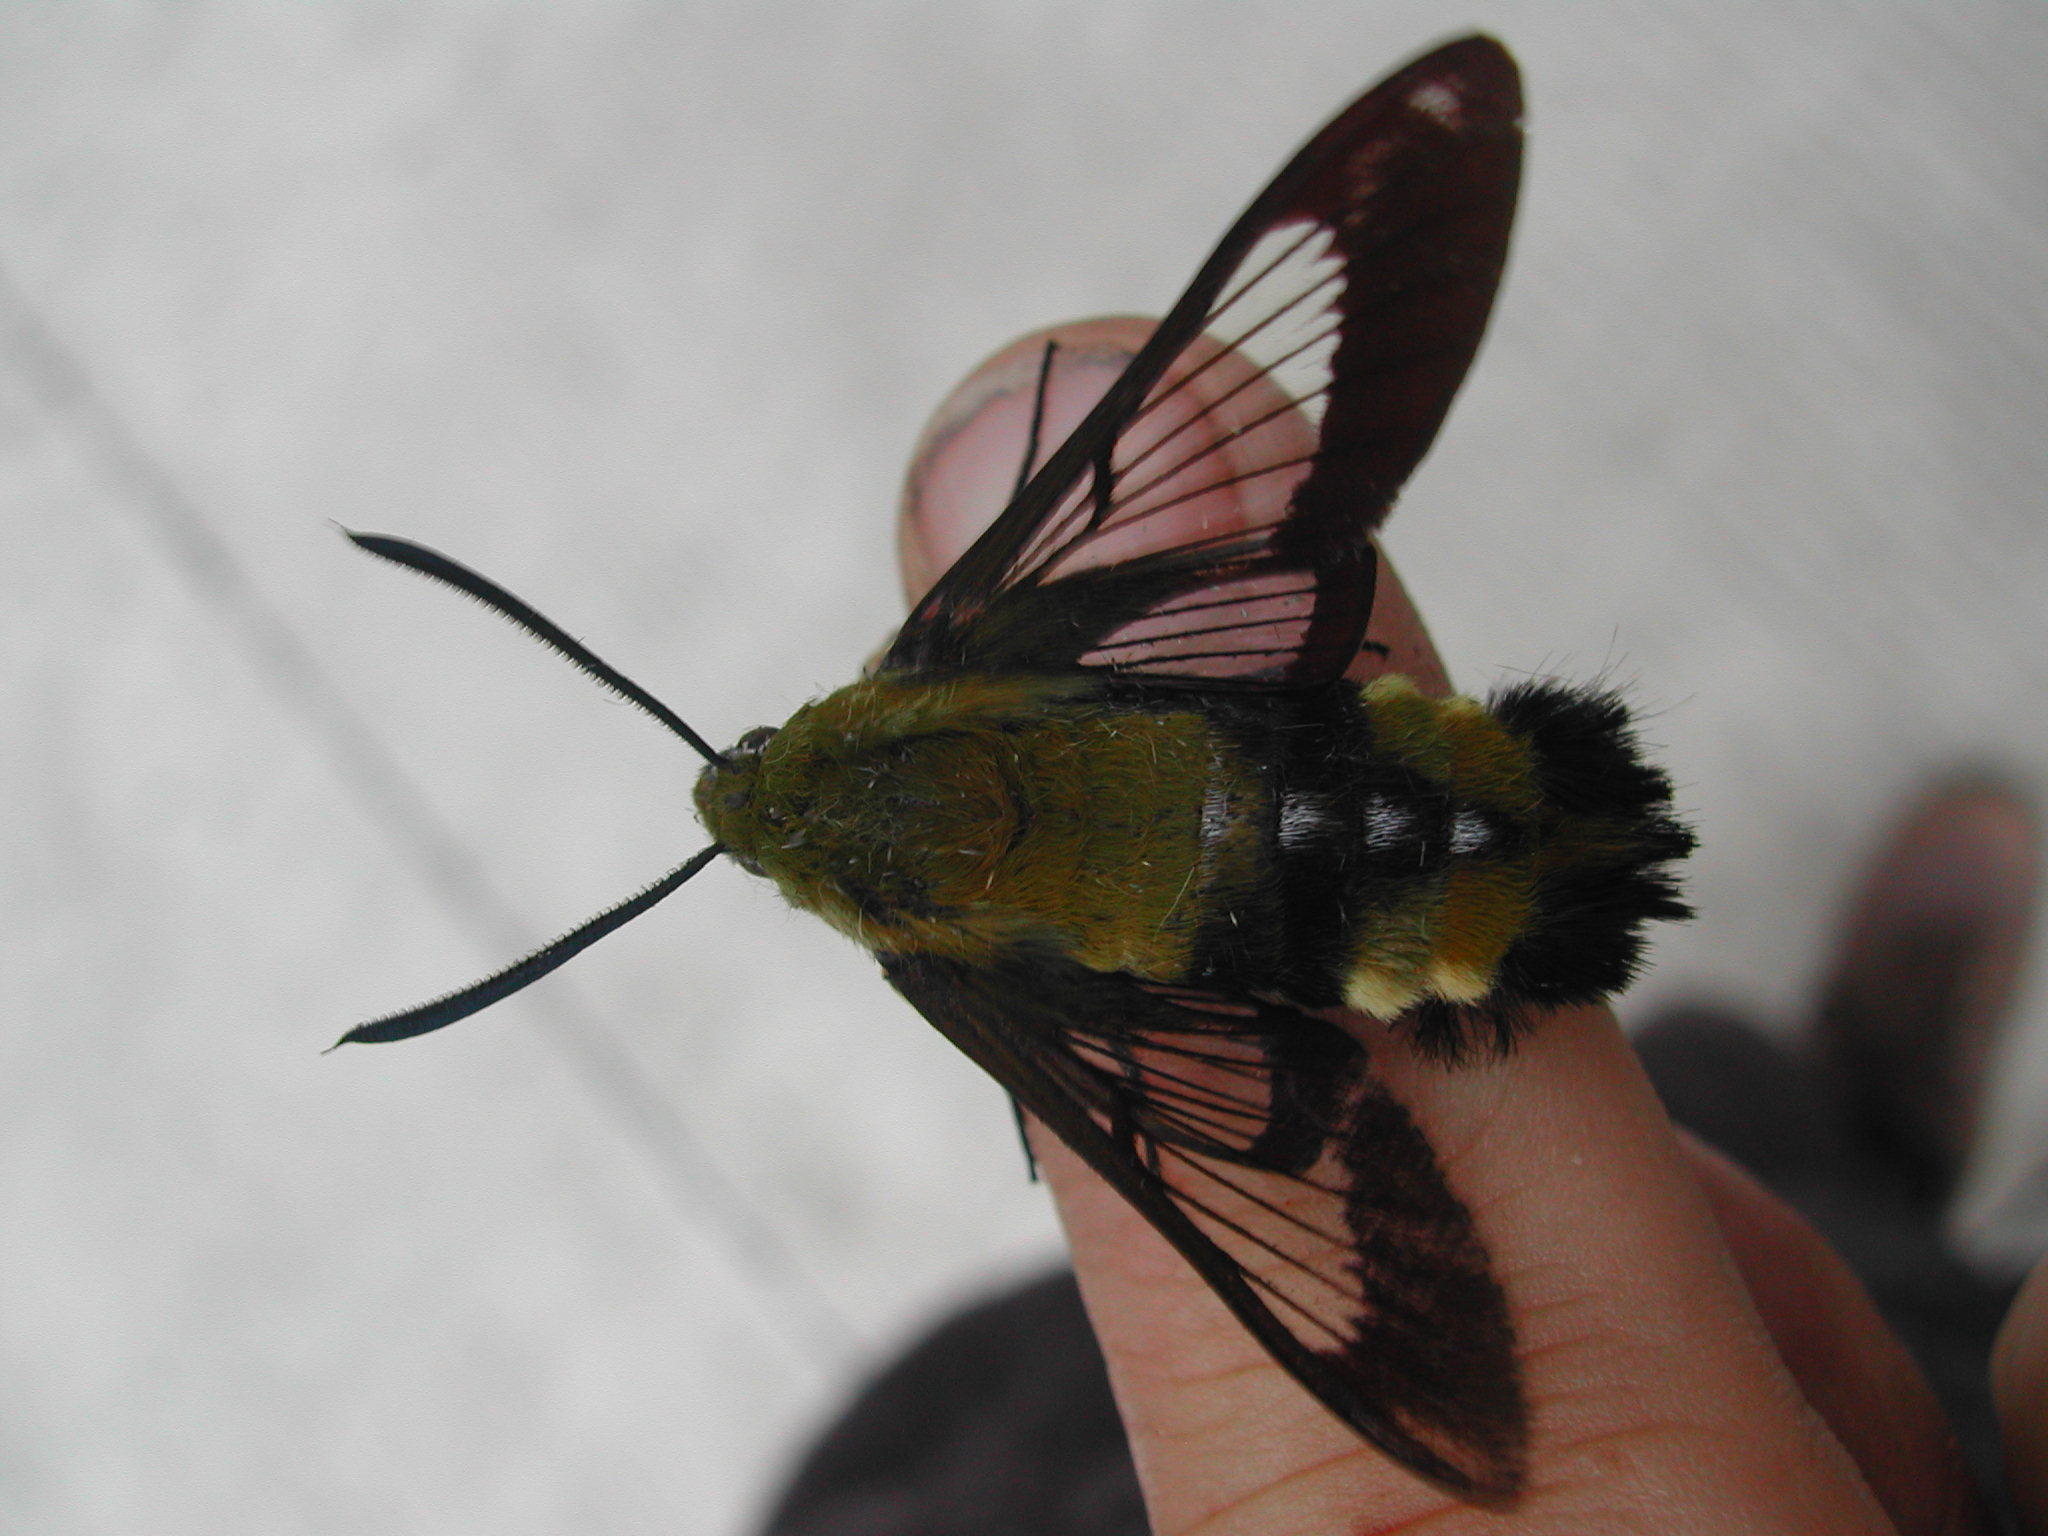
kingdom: Animalia
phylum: Arthropoda
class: Insecta
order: Lepidoptera
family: Sphingidae
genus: Hemaris
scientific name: Hemaris beresowskii
